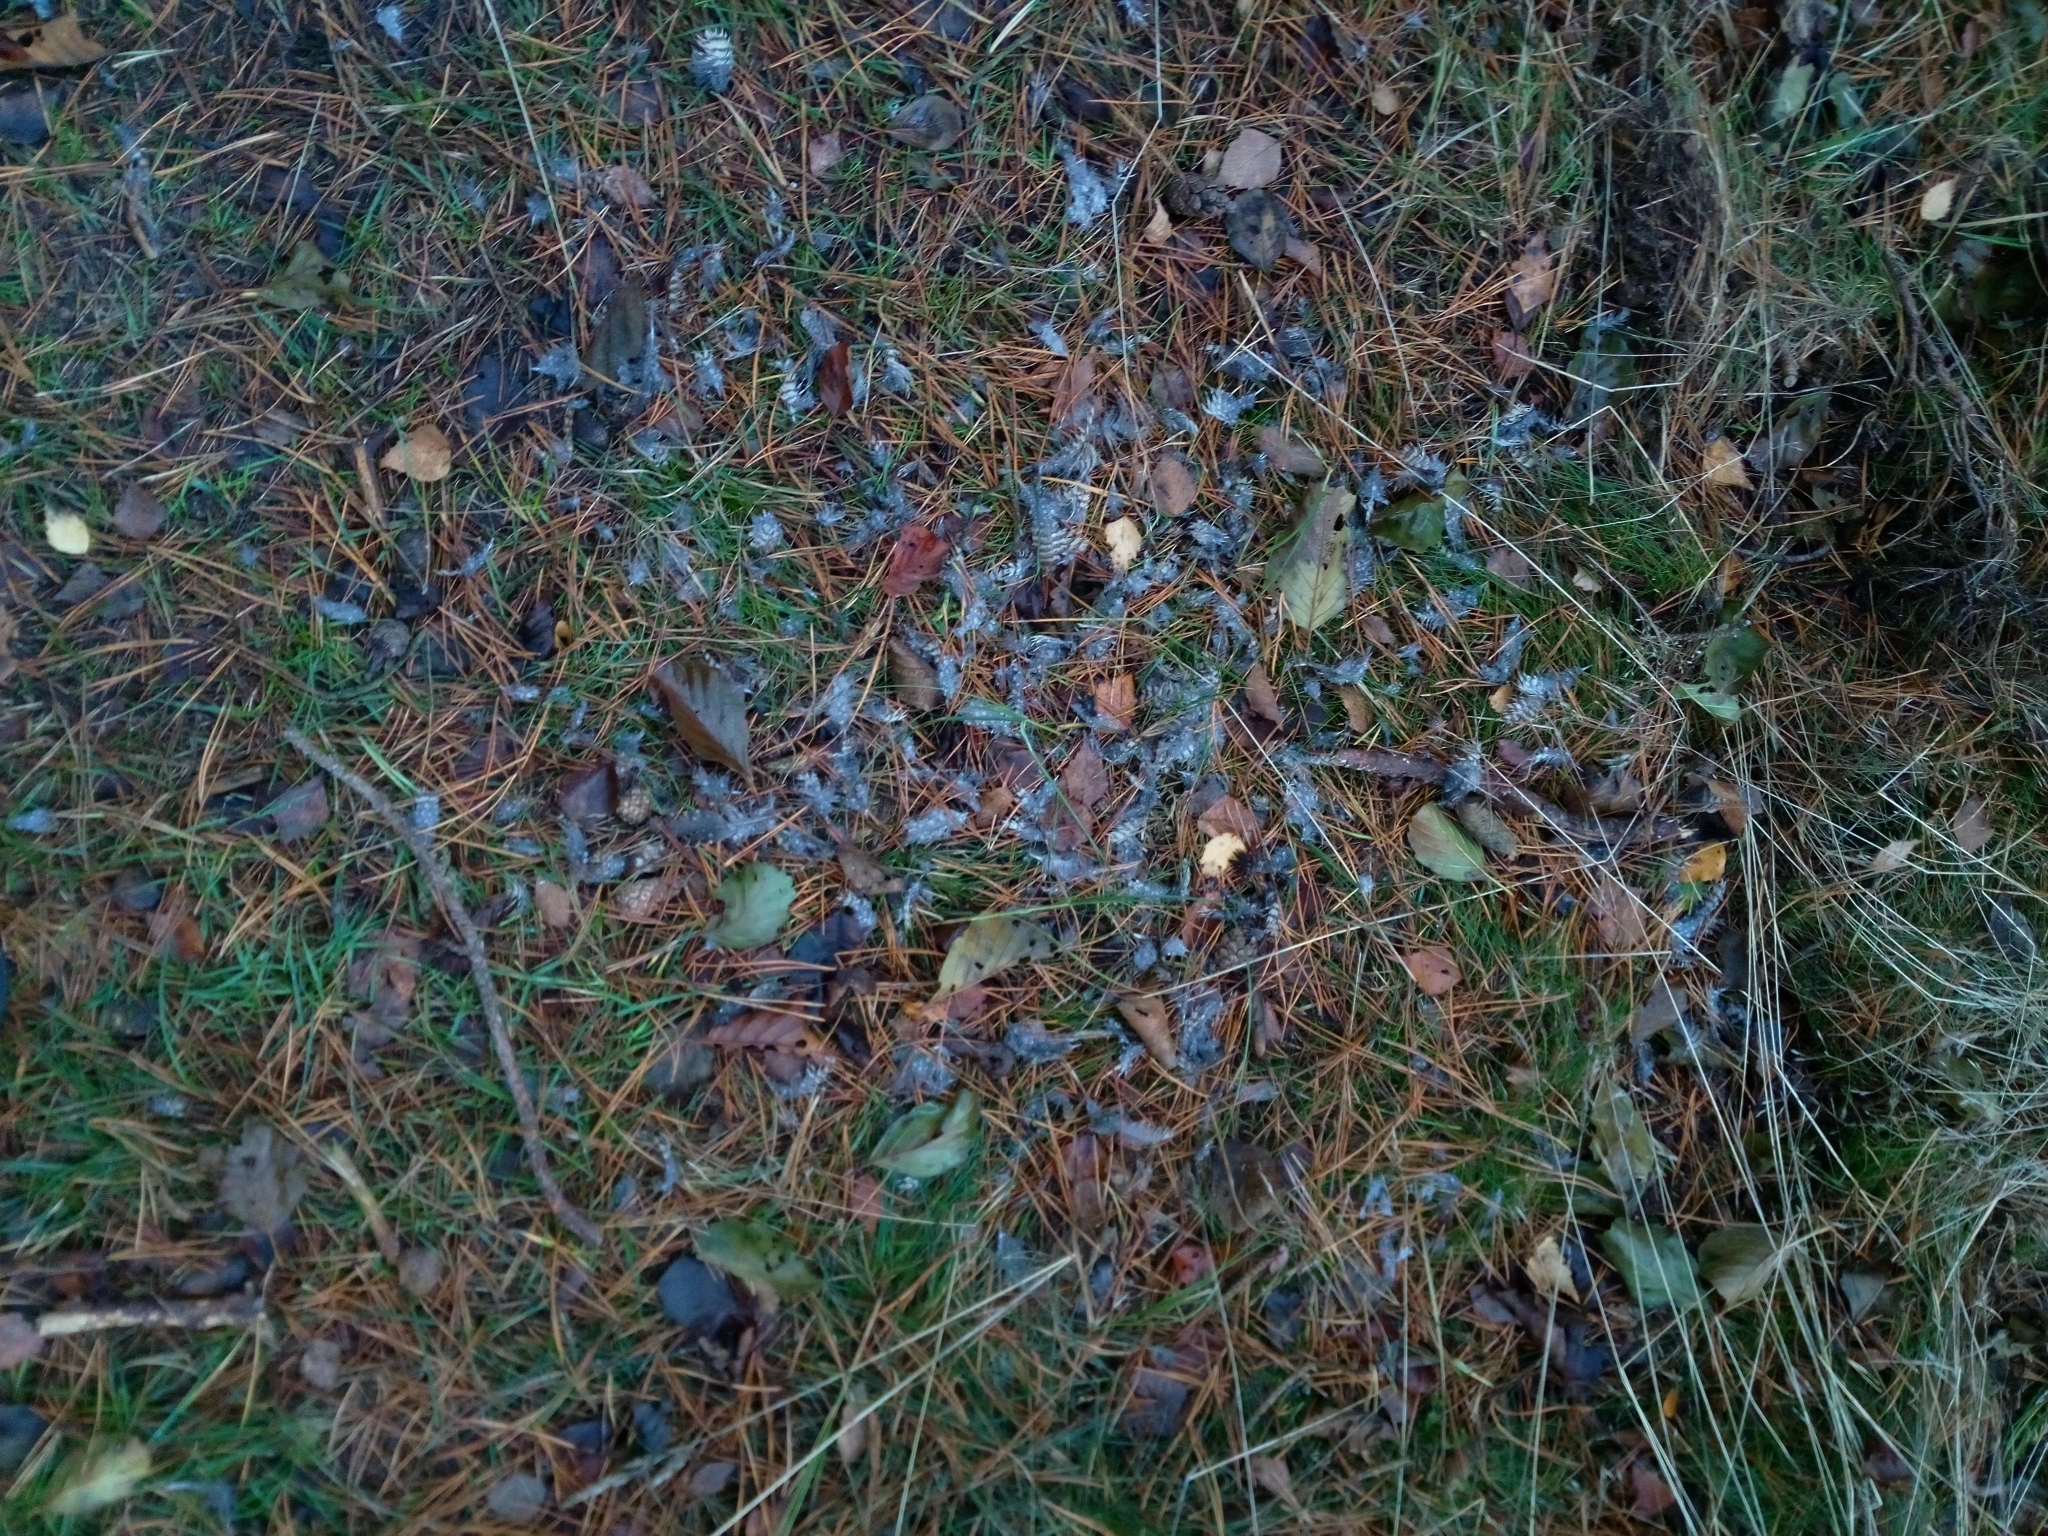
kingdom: Animalia
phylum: Chordata
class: Aves
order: Charadriiformes
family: Scolopacidae
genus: Scolopax
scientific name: Scolopax rusticola
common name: Eurasian woodcock
